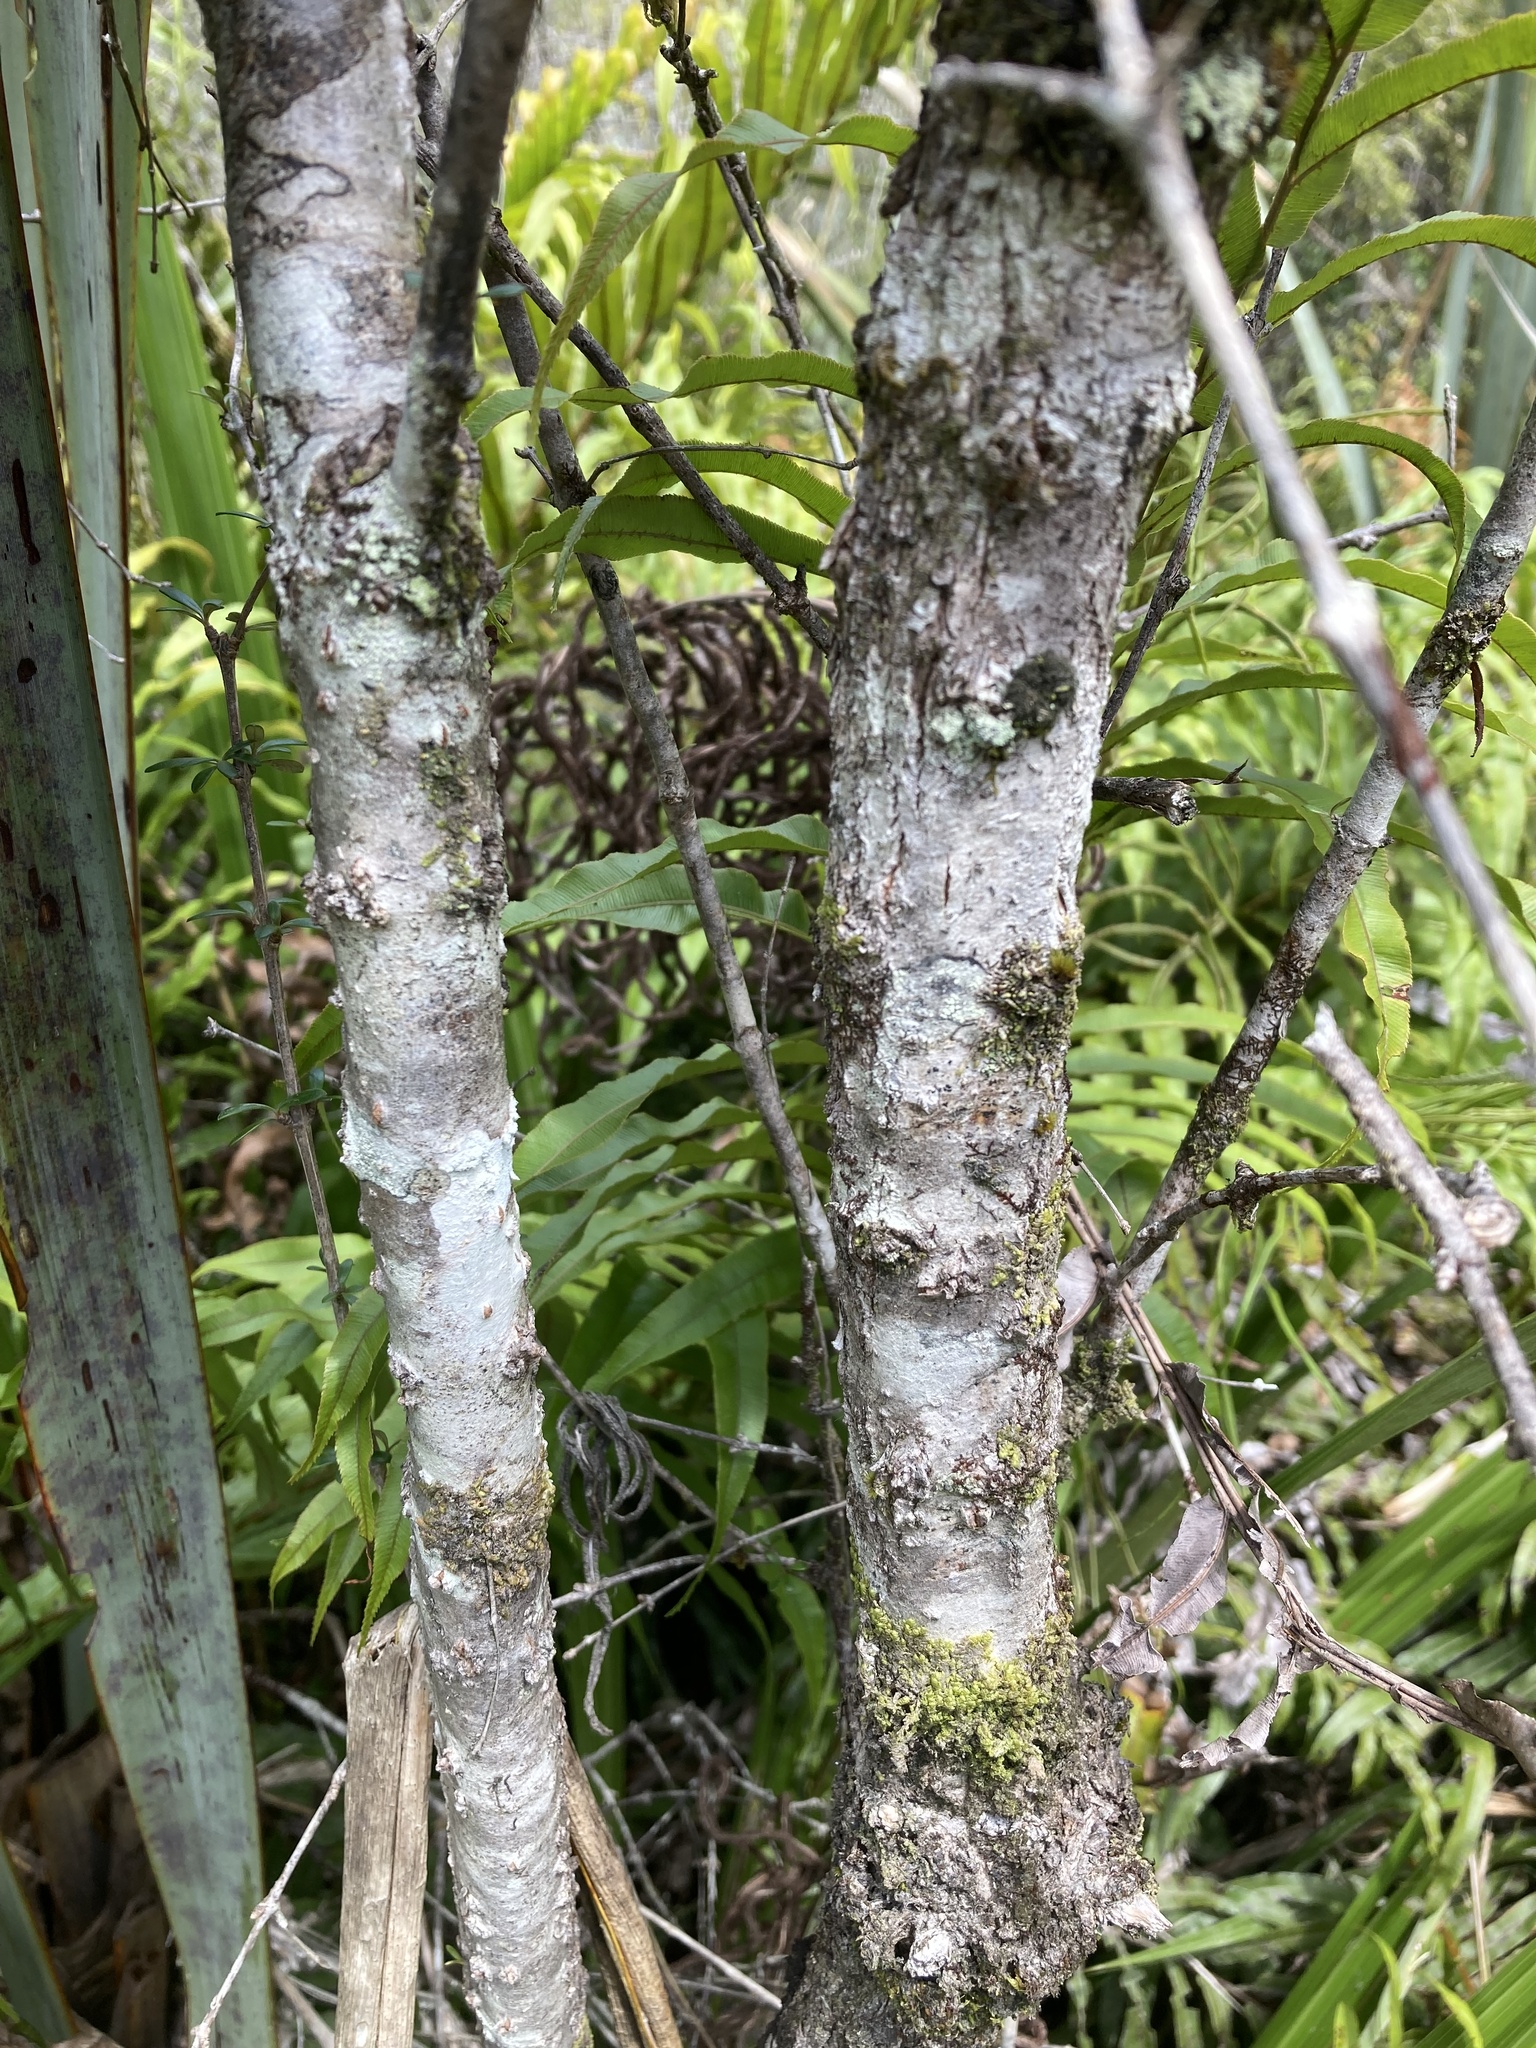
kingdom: Plantae
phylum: Tracheophyta
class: Magnoliopsida
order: Asterales
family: Asteraceae
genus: Olearia
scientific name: Olearia virgata
